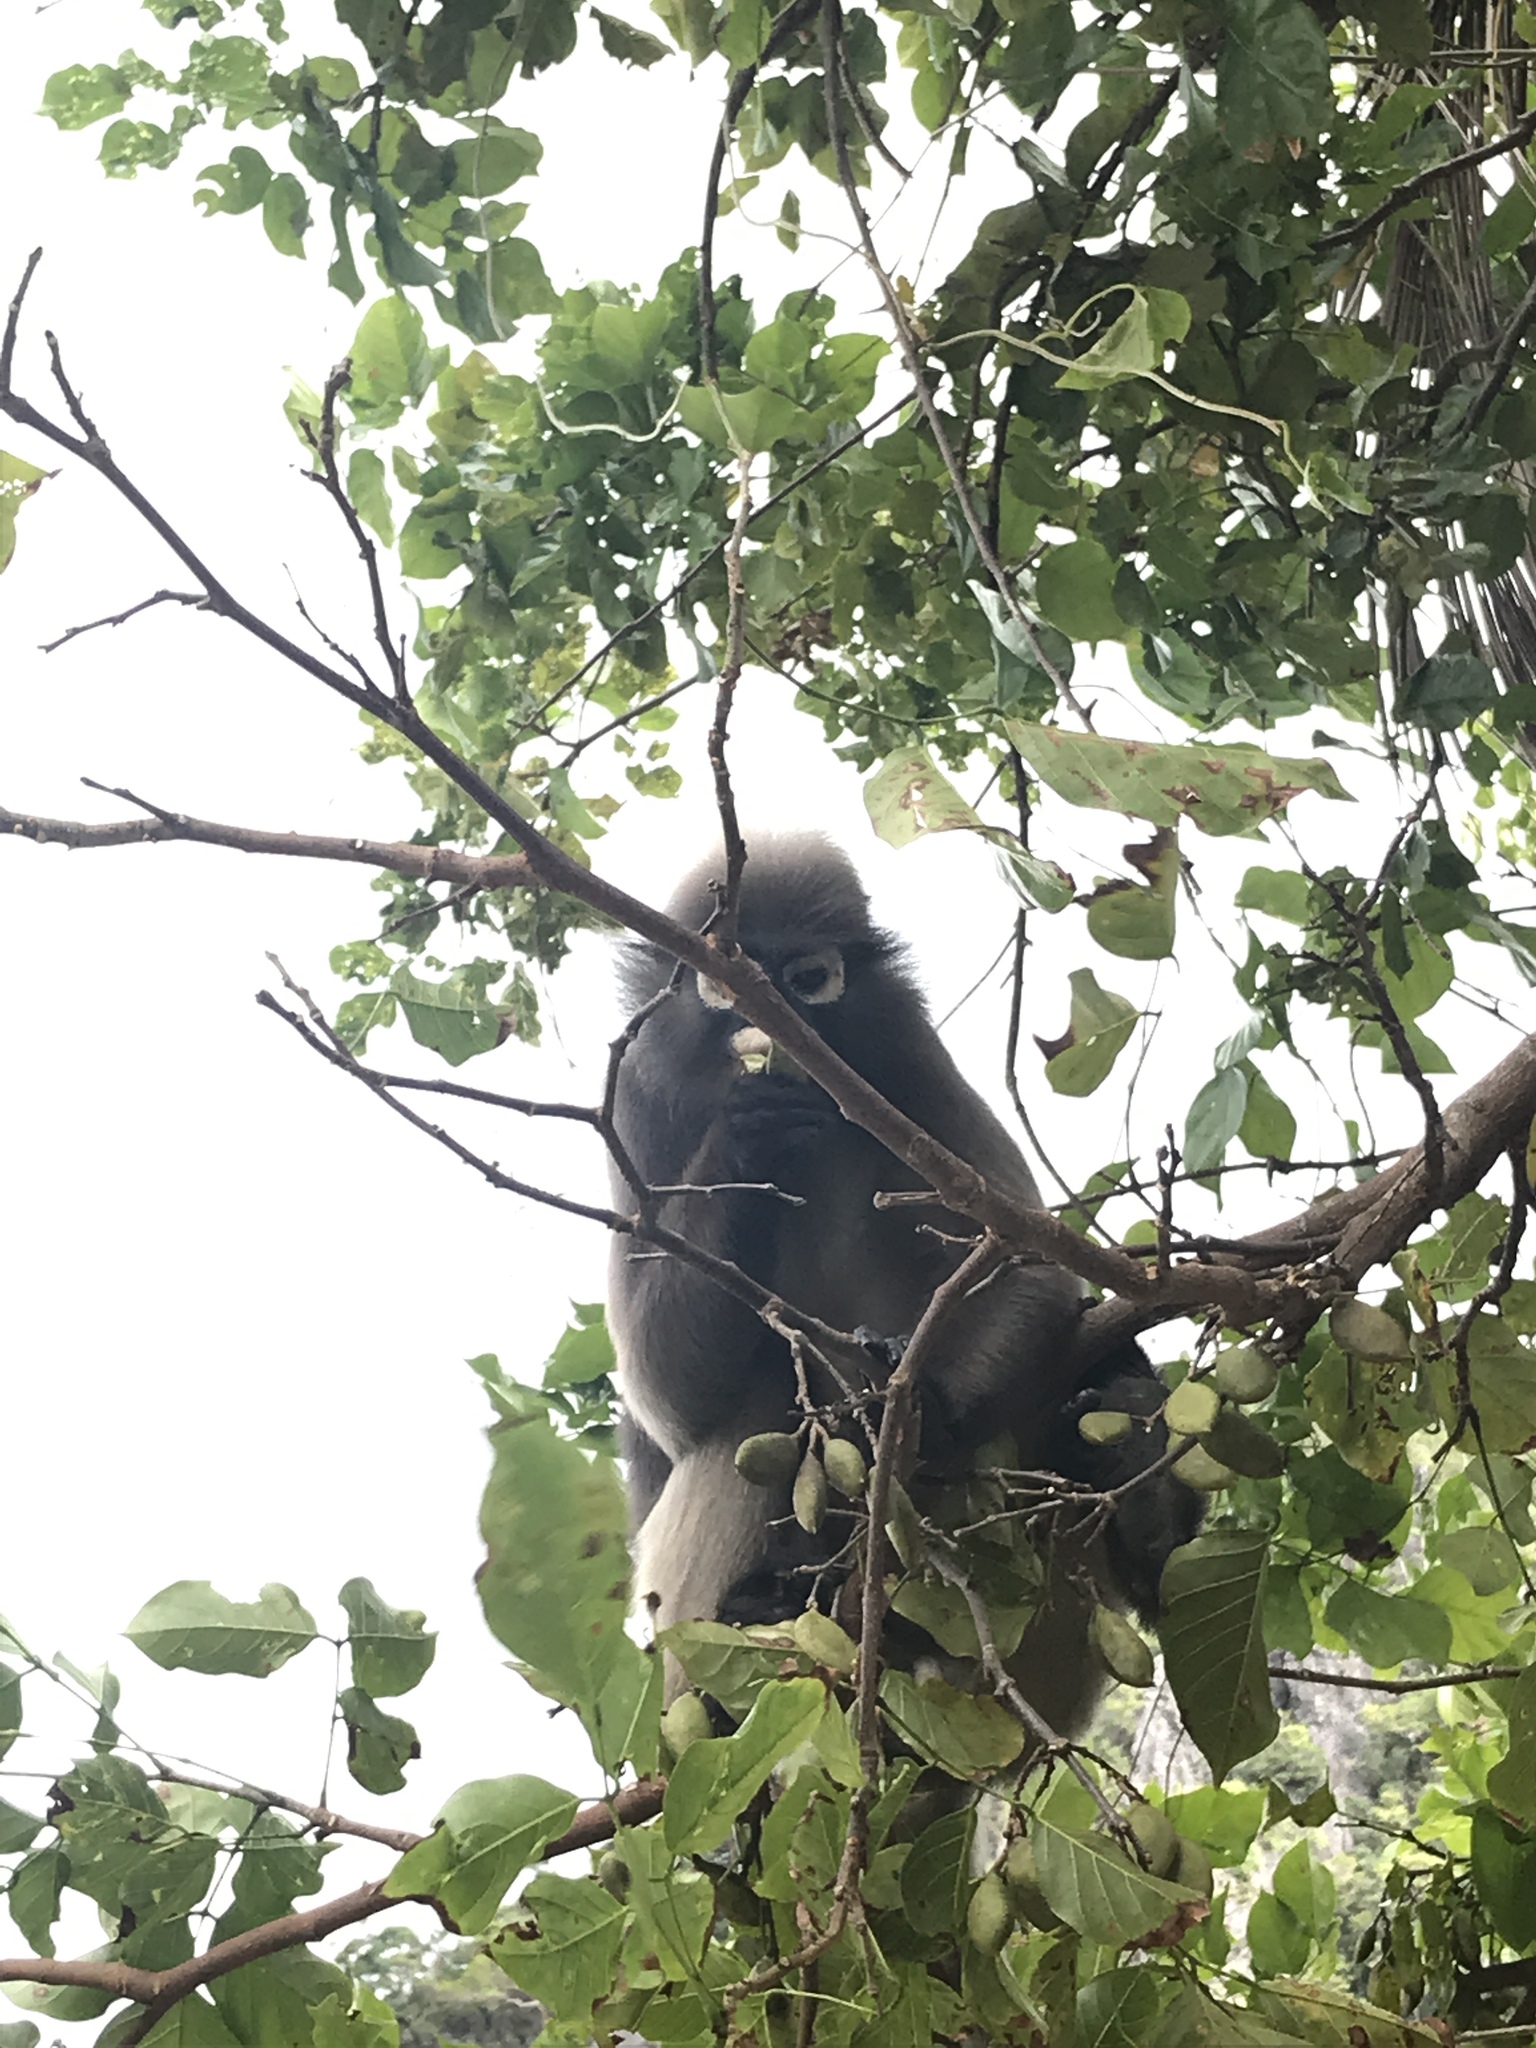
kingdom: Animalia
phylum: Chordata
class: Mammalia
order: Primates
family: Cercopithecidae
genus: Trachypithecus
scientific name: Trachypithecus obscurus
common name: Dusky leaf-monkey
